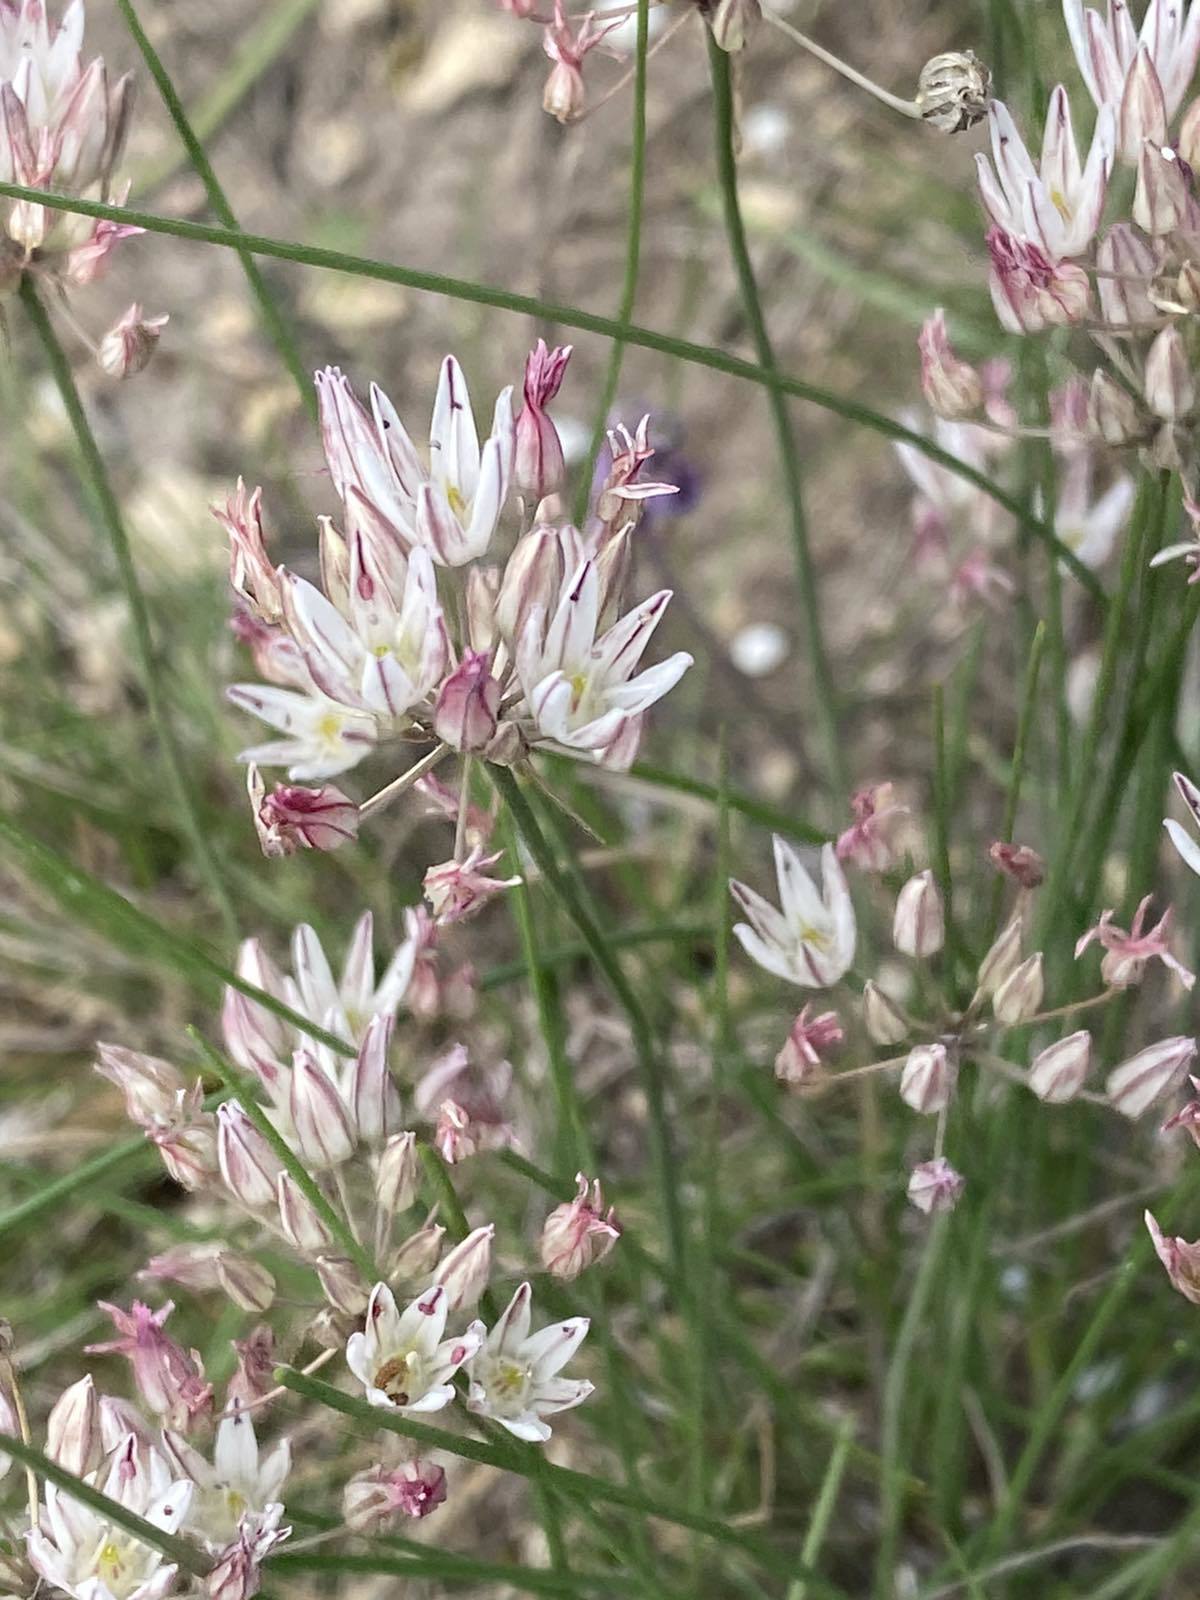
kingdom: Plantae
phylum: Tracheophyta
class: Liliopsida
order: Asparagales
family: Amaryllidaceae
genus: Allium
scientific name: Allium moschatum
